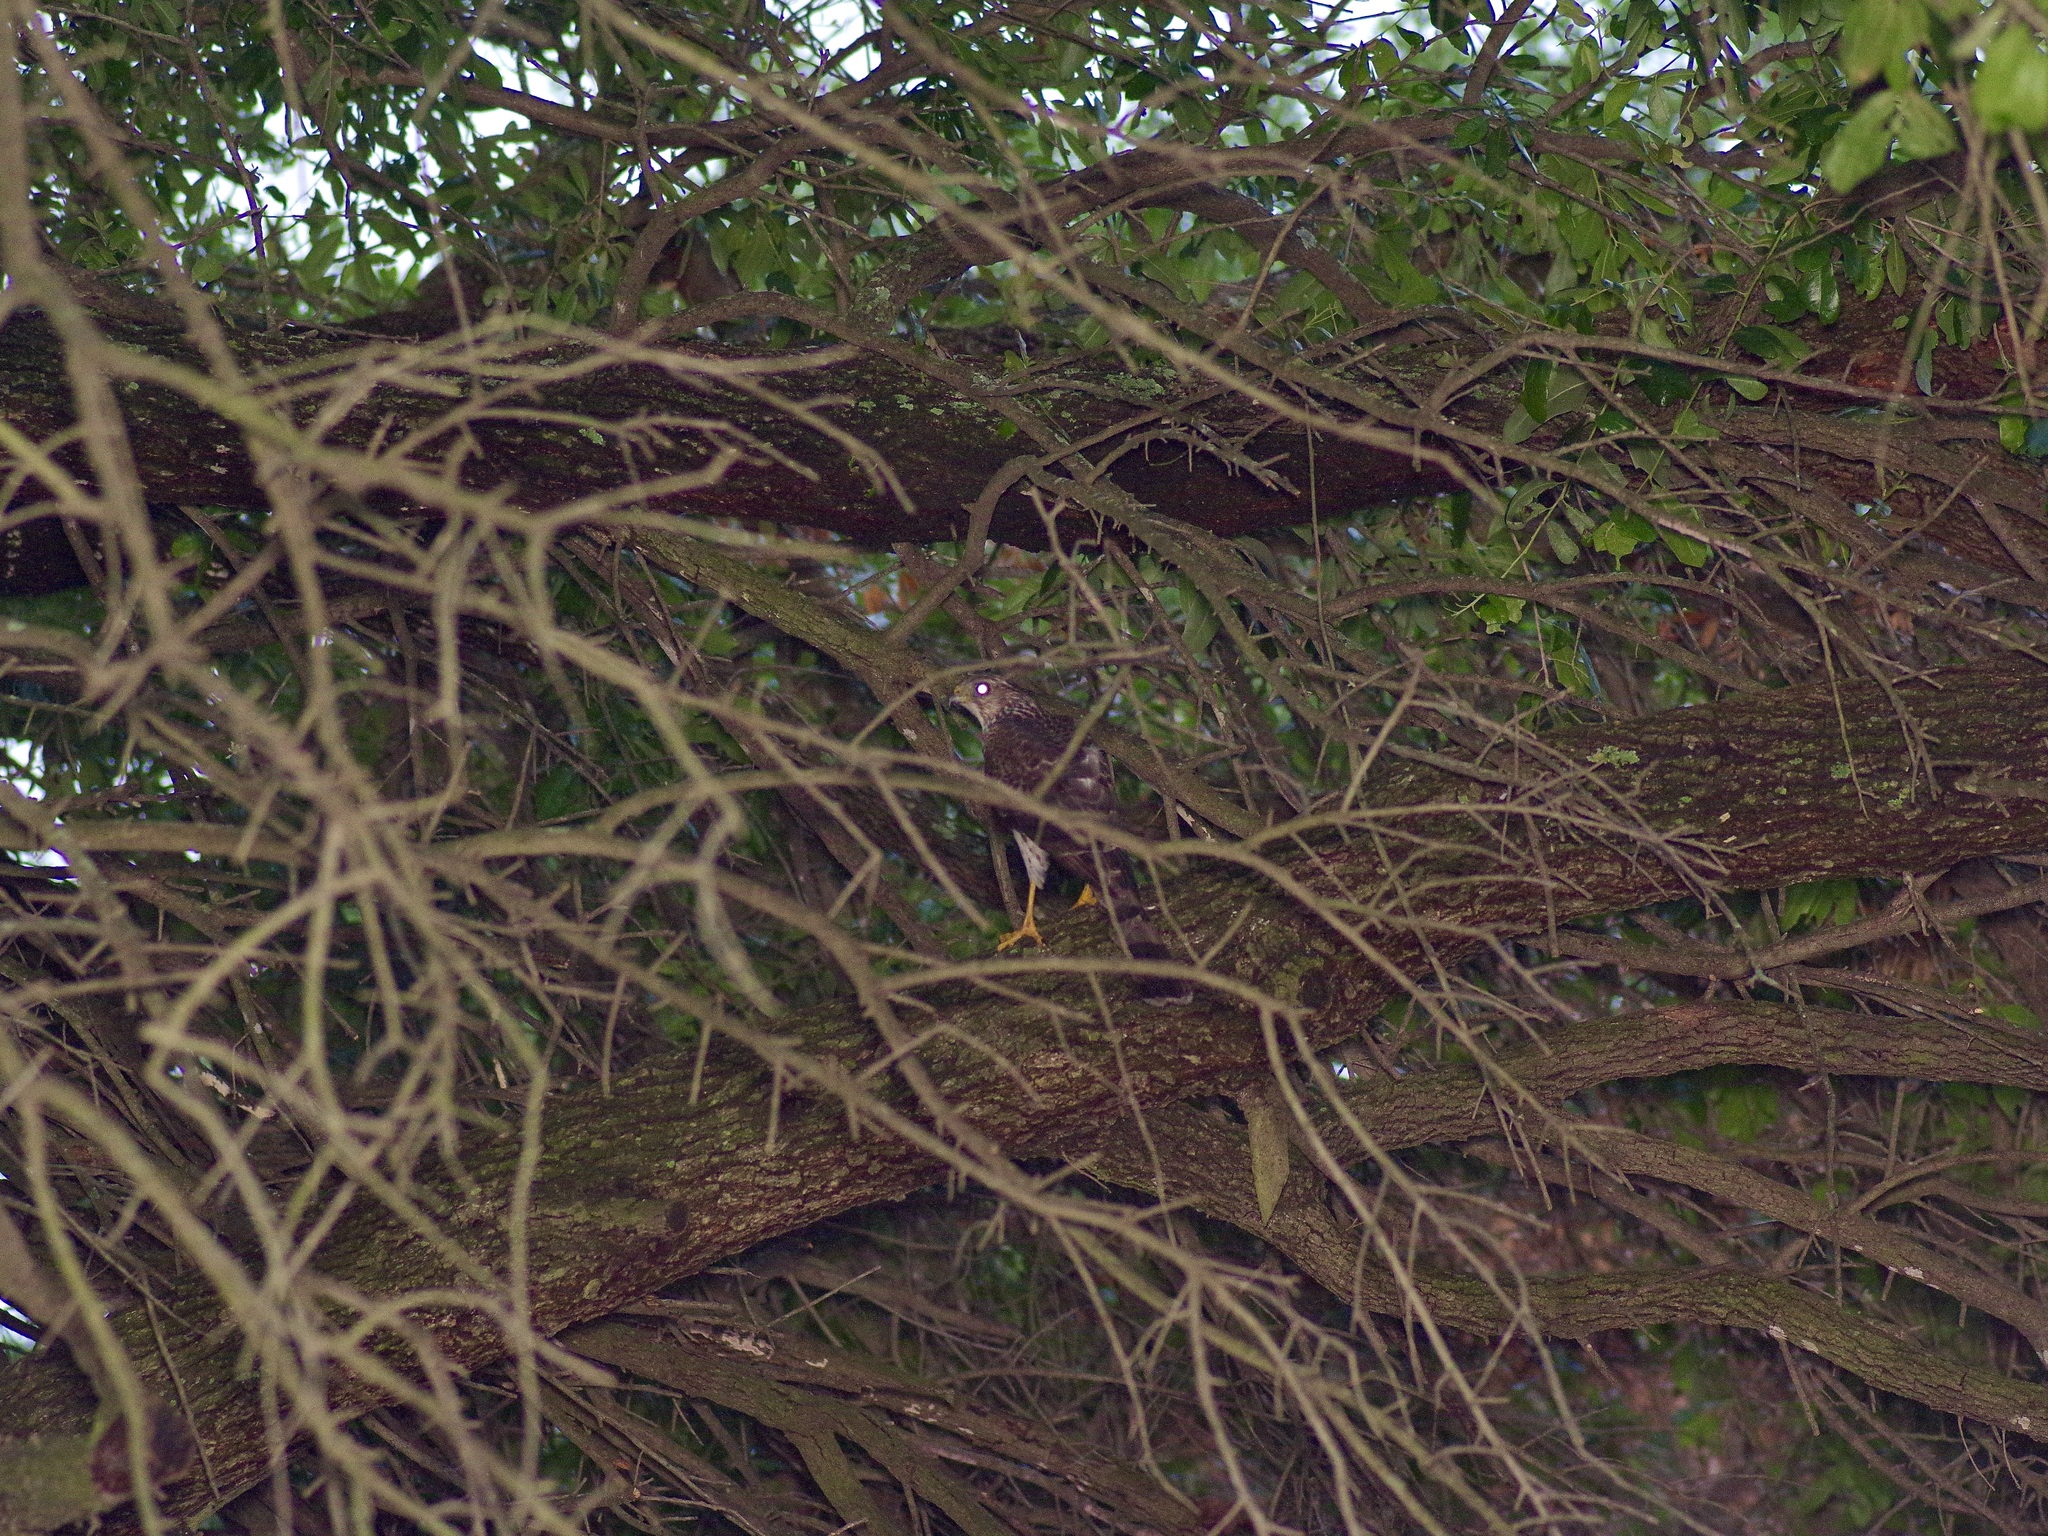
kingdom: Animalia
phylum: Chordata
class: Aves
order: Accipitriformes
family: Accipitridae
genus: Accipiter
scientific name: Accipiter cooperii
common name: Cooper's hawk
